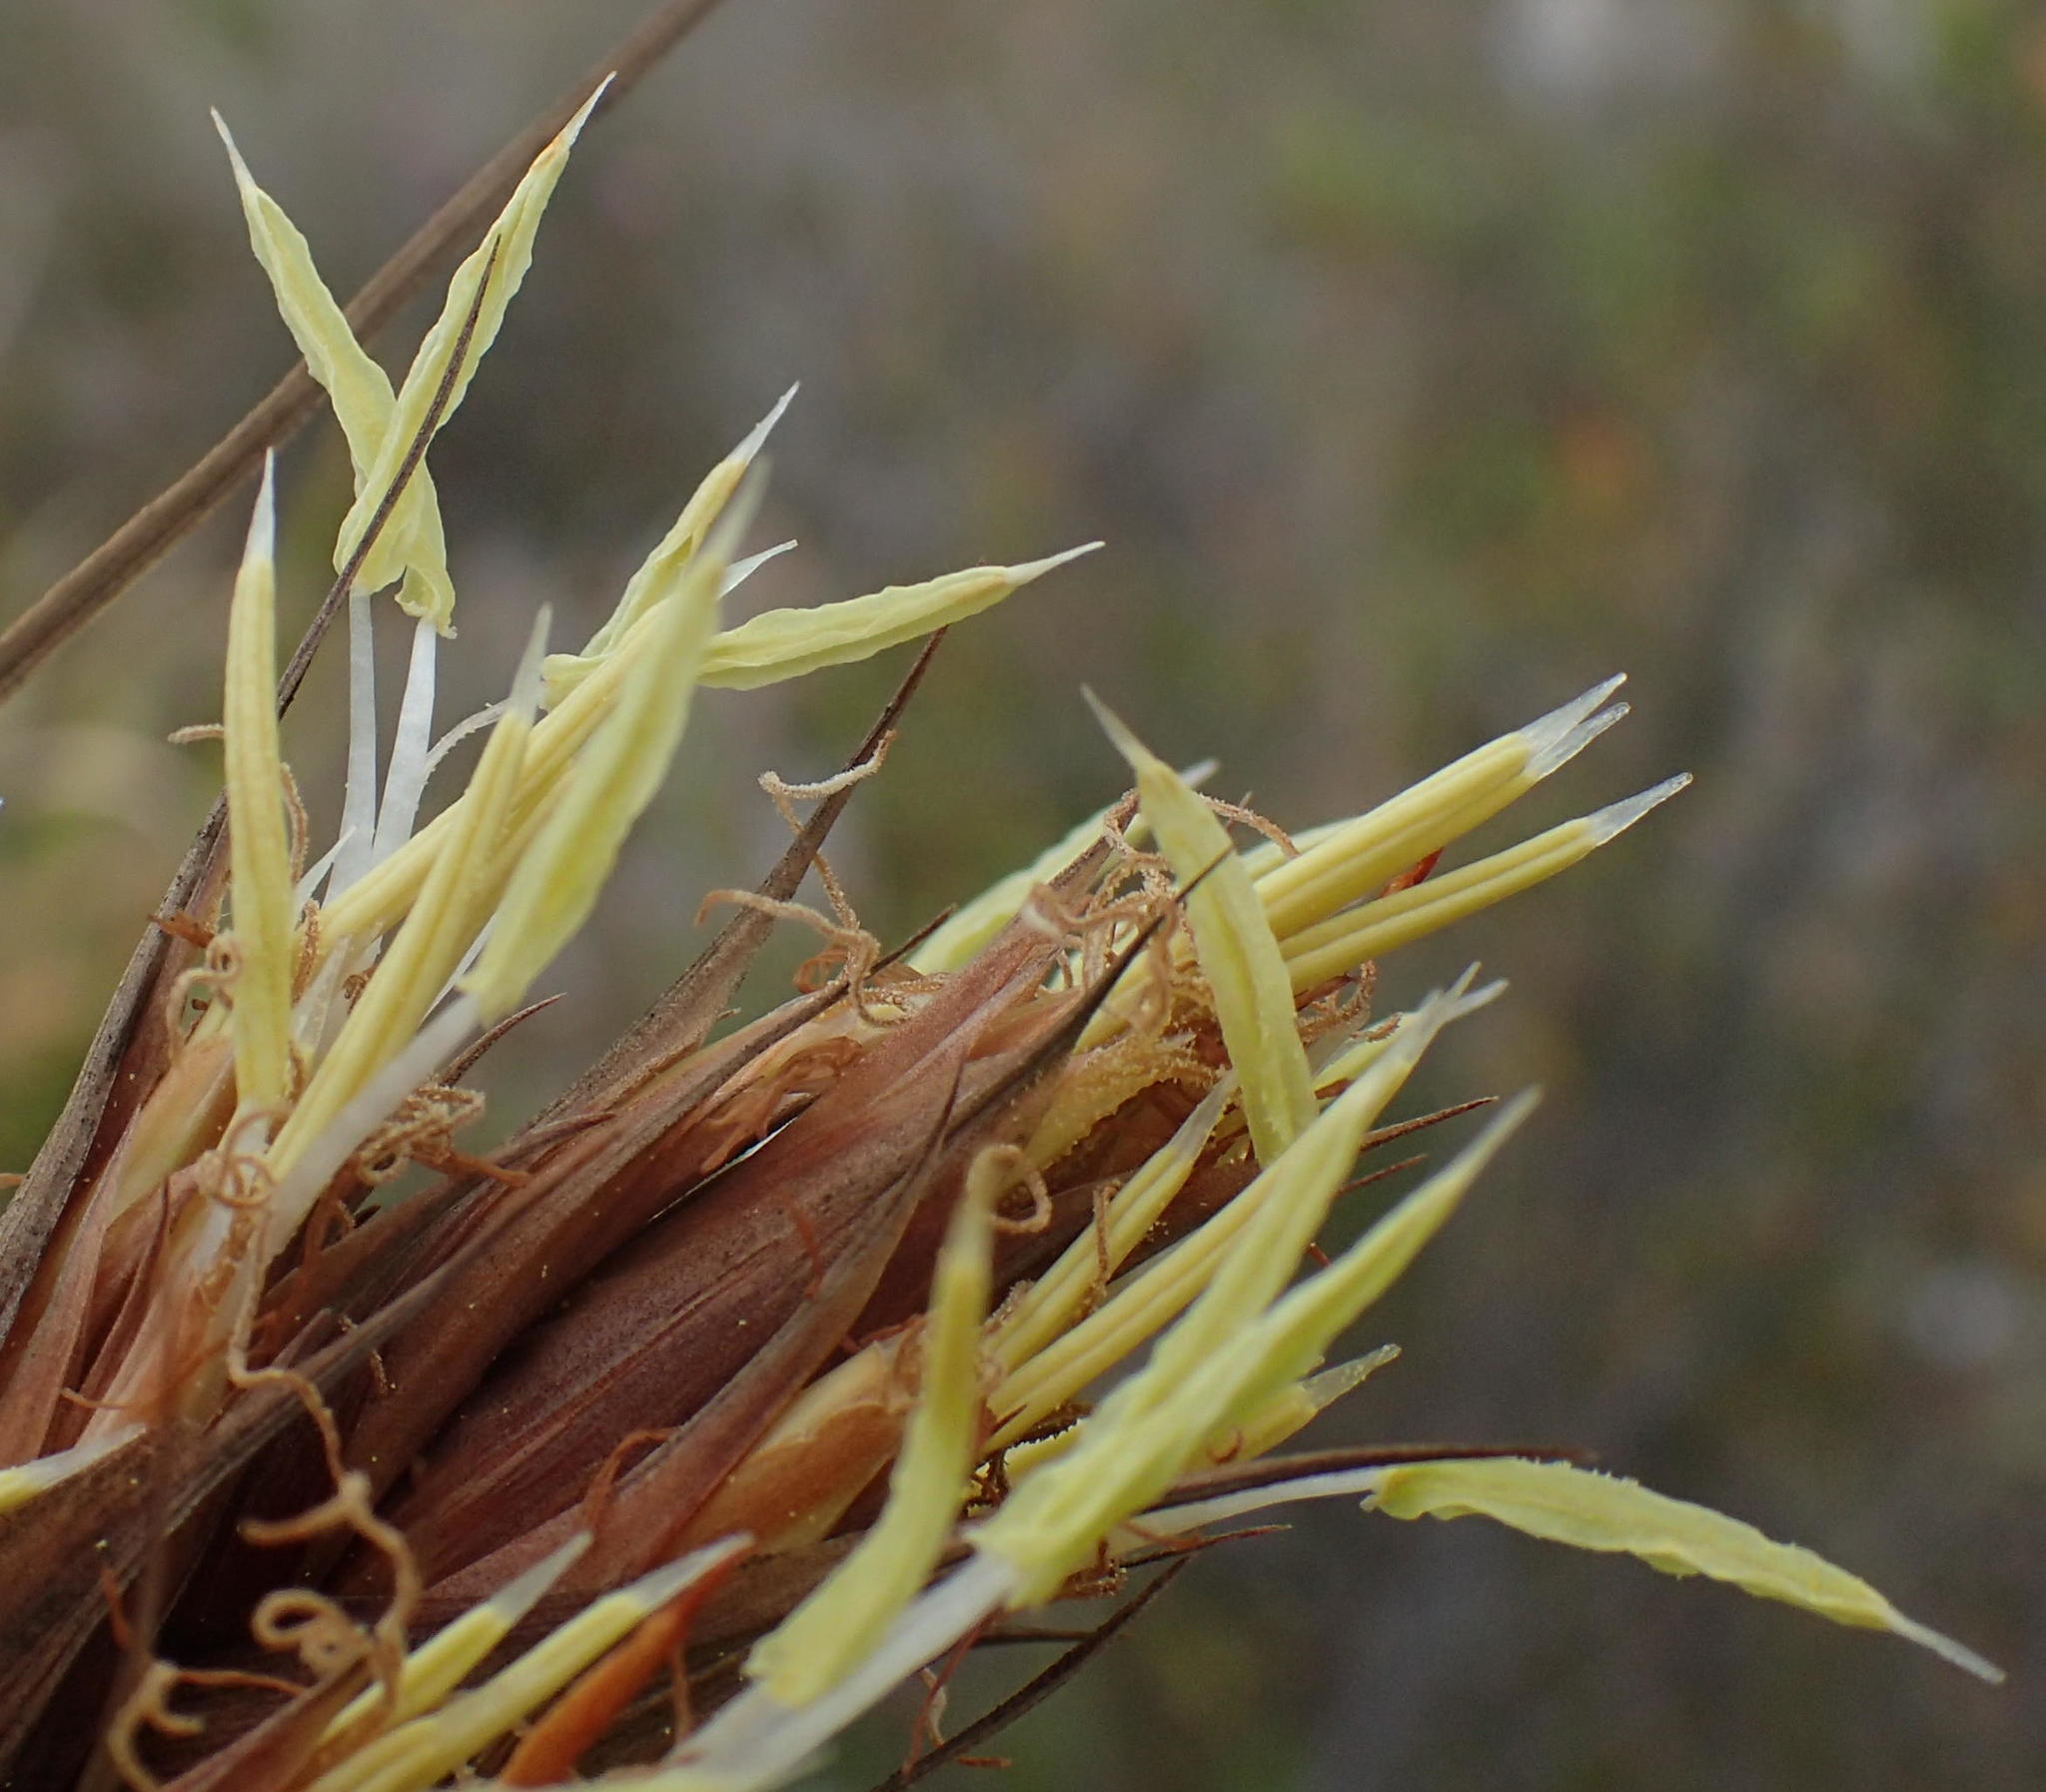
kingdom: Plantae
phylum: Tracheophyta
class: Liliopsida
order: Poales
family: Cyperaceae
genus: Tetraria
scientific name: Tetraria thermalis
